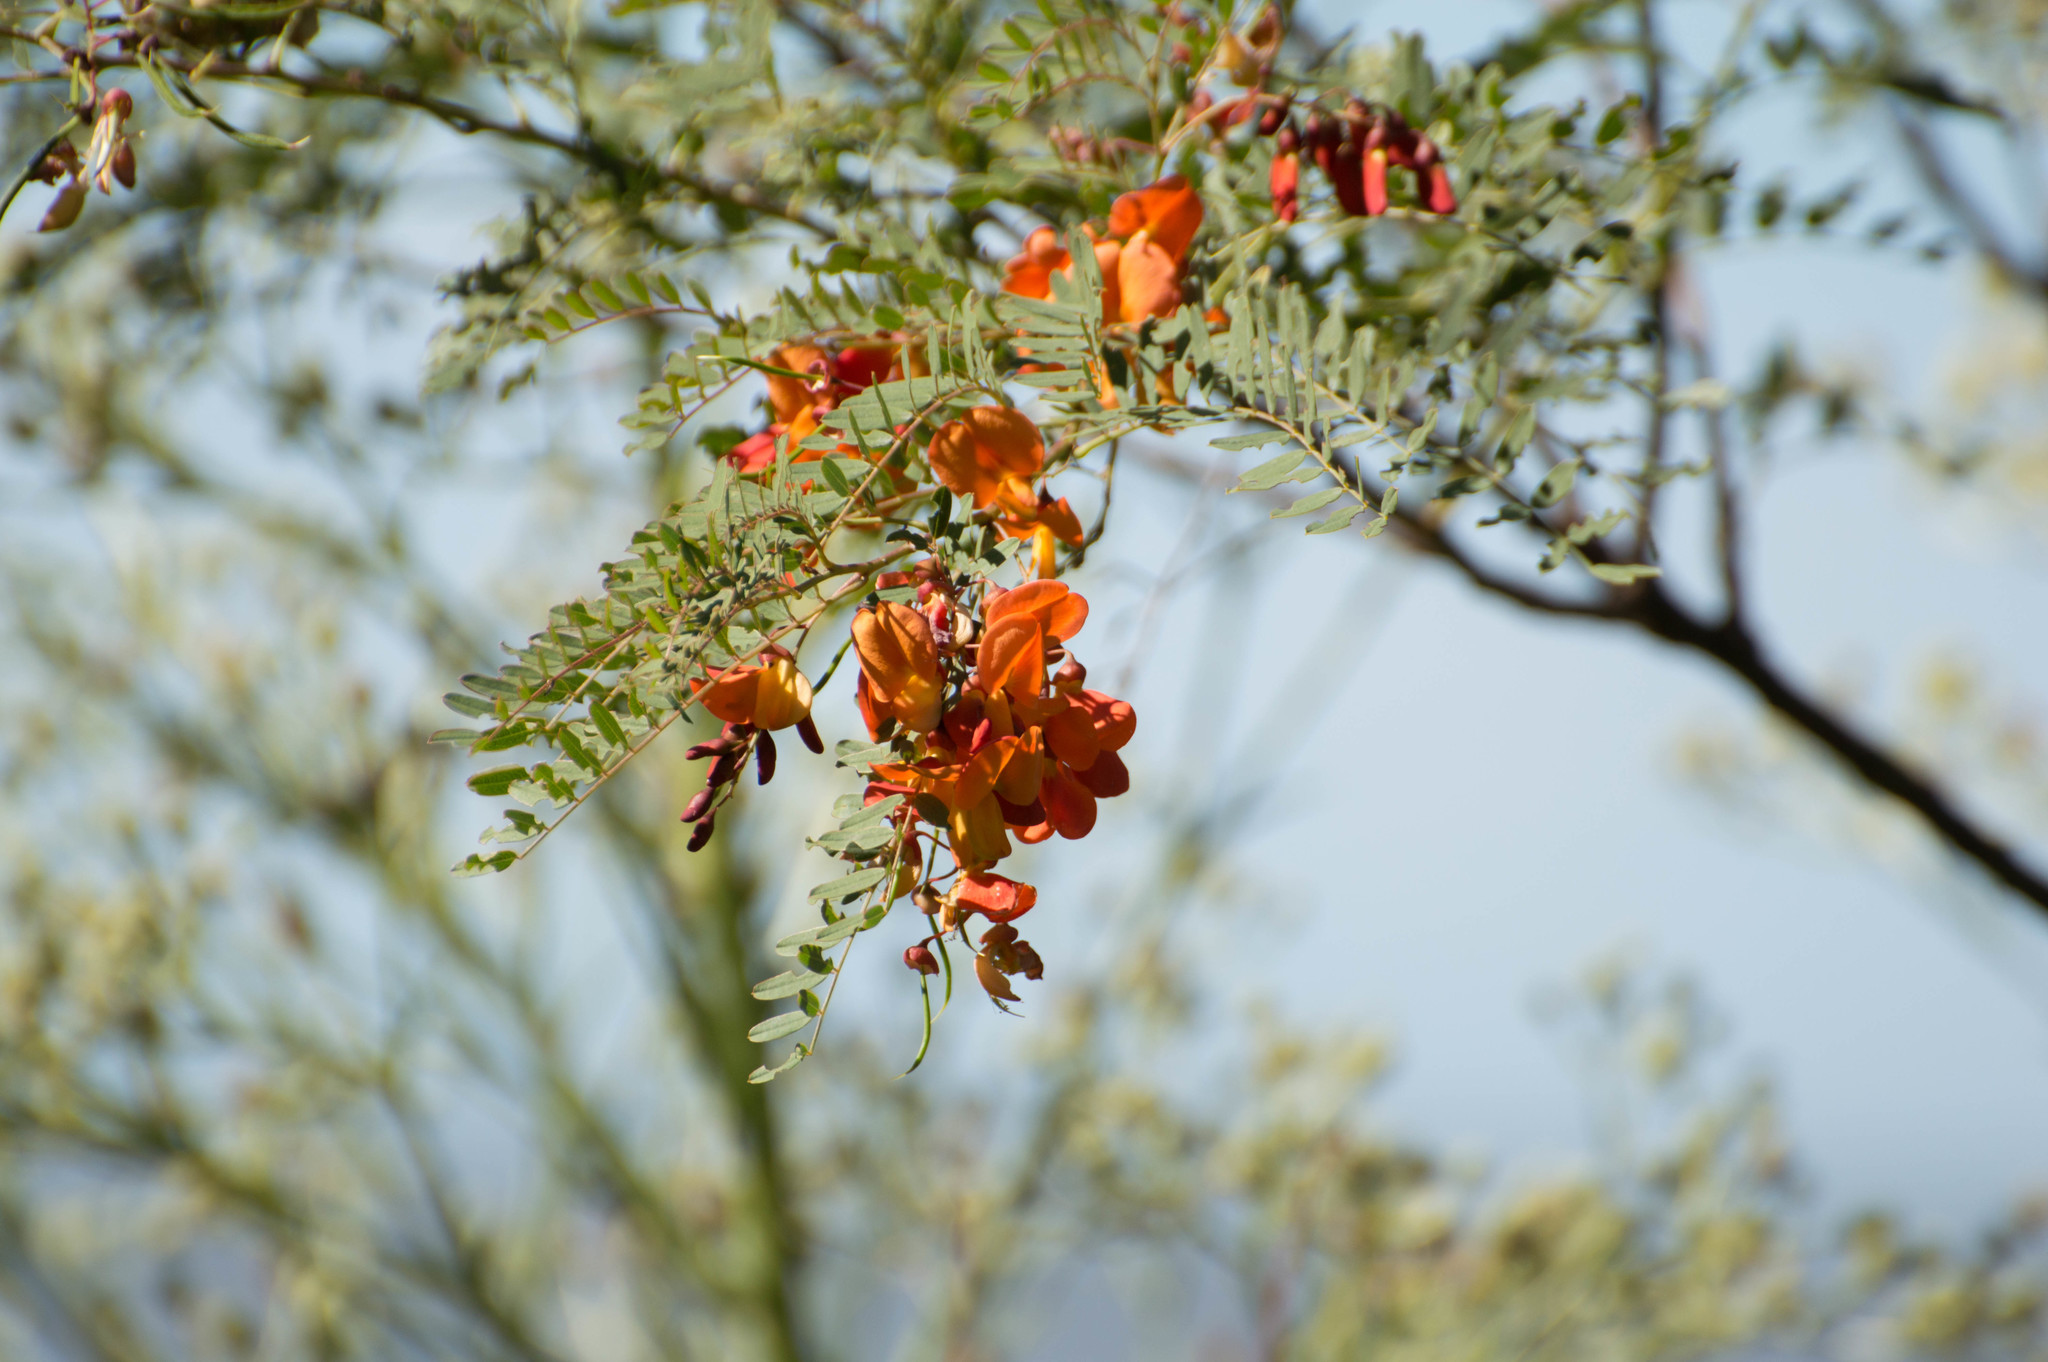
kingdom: Plantae
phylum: Tracheophyta
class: Magnoliopsida
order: Fabales
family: Fabaceae
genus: Sesbania
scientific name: Sesbania punicea
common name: Rattlebox
